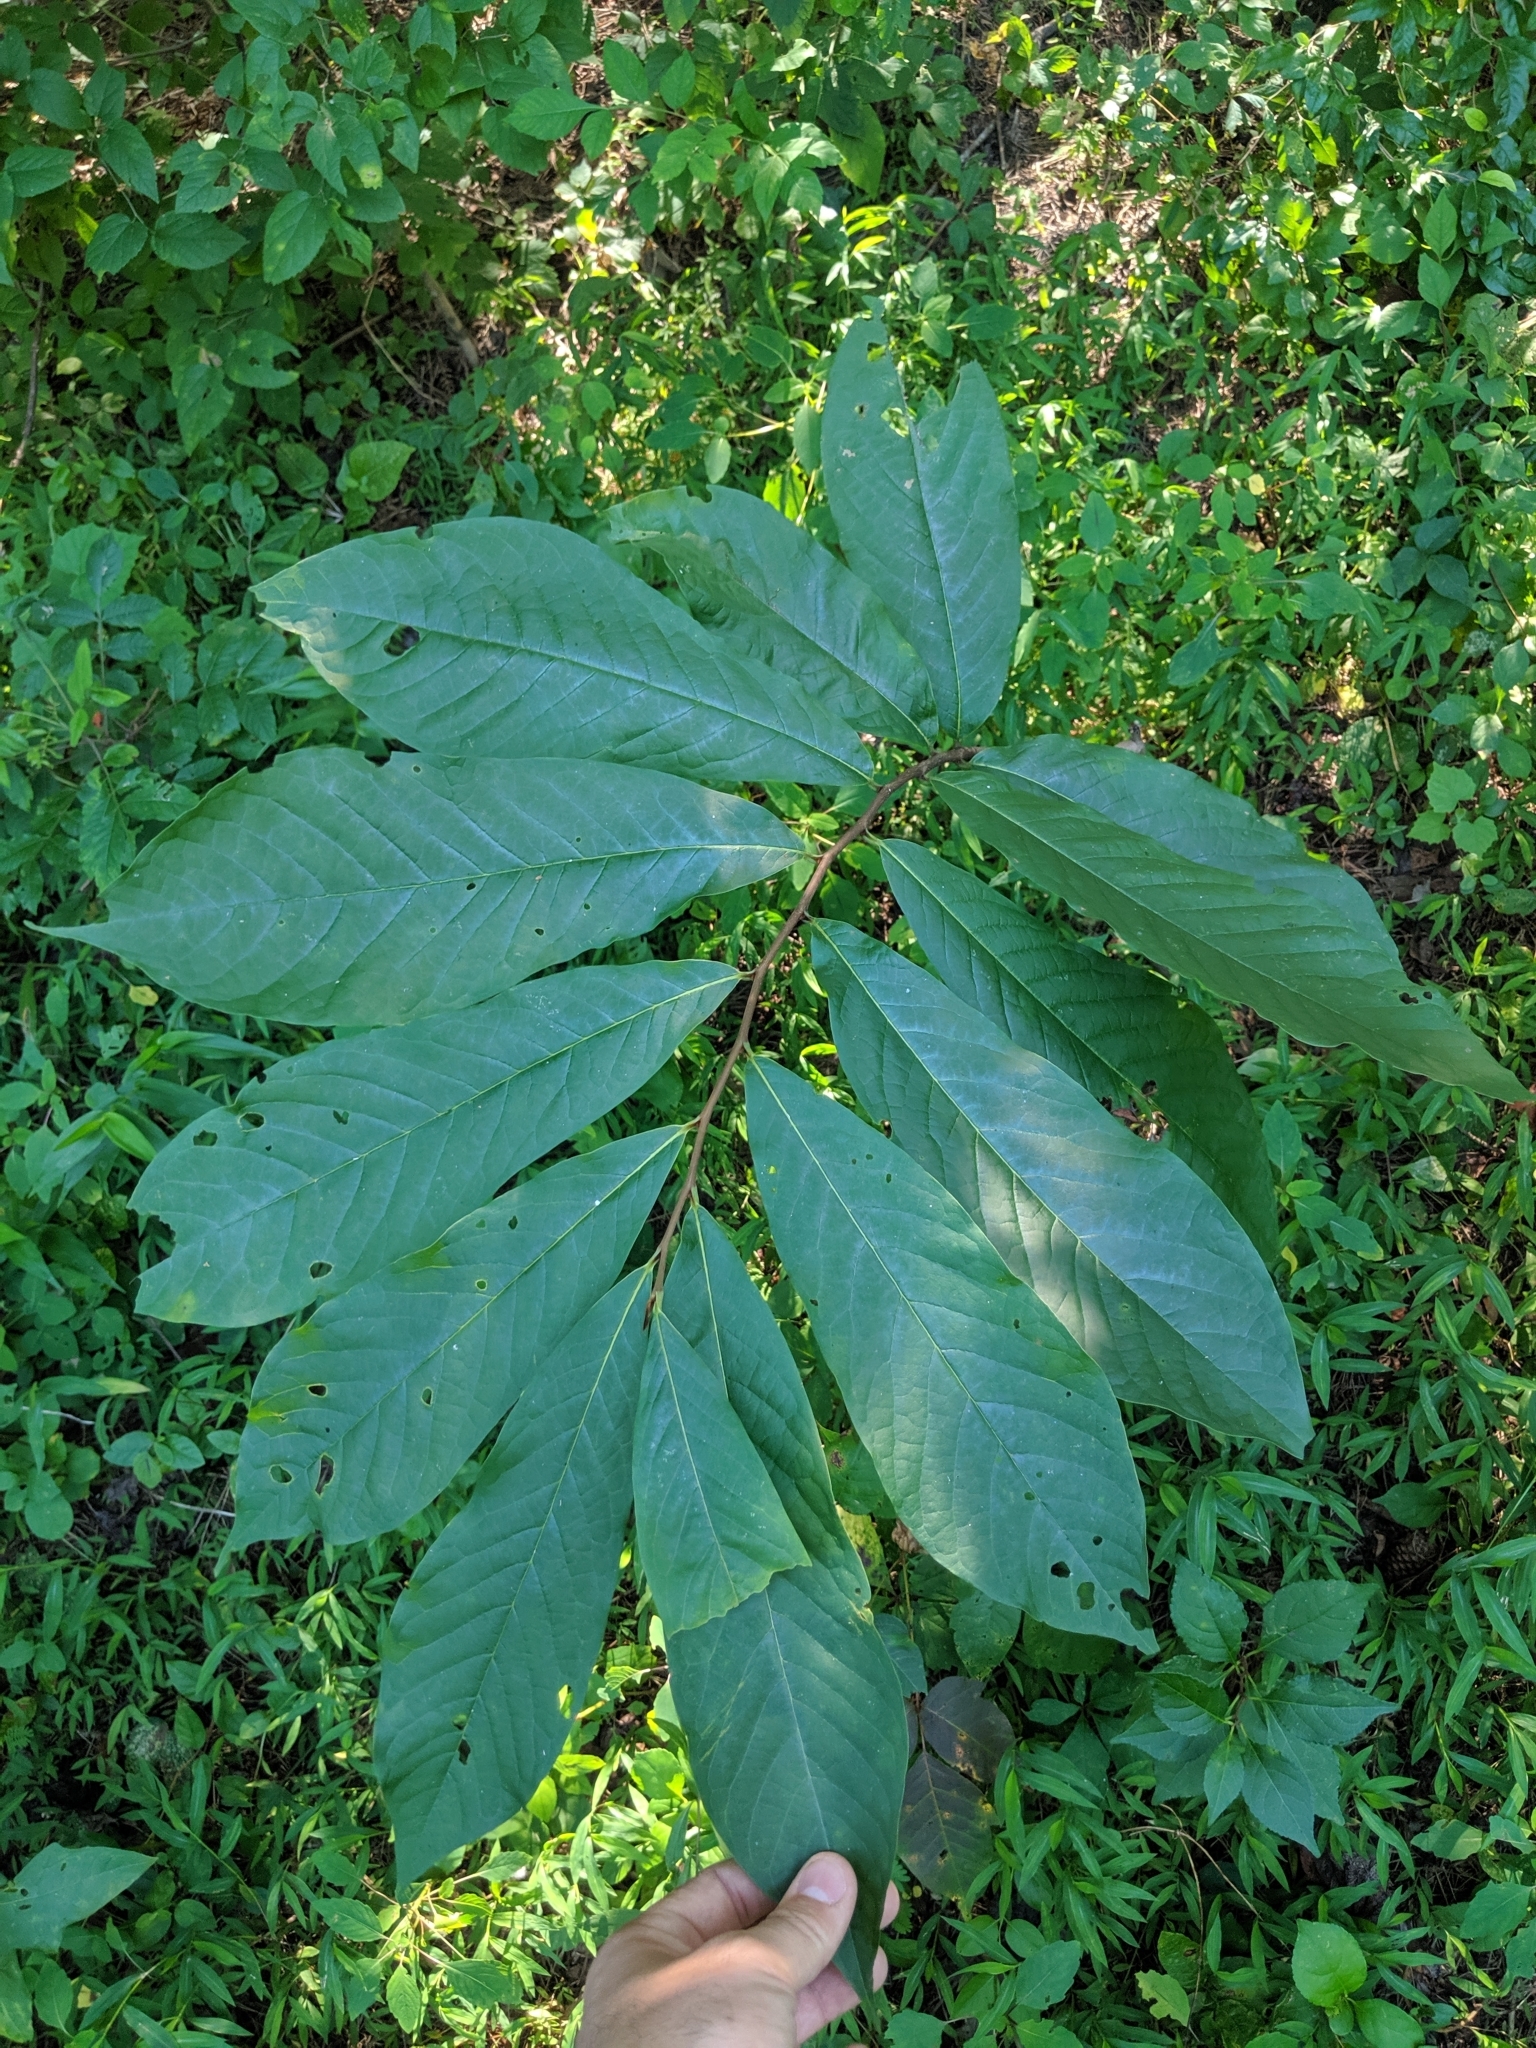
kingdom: Plantae
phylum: Tracheophyta
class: Magnoliopsida
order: Magnoliales
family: Annonaceae
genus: Asimina
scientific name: Asimina triloba
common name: Dog-banana
